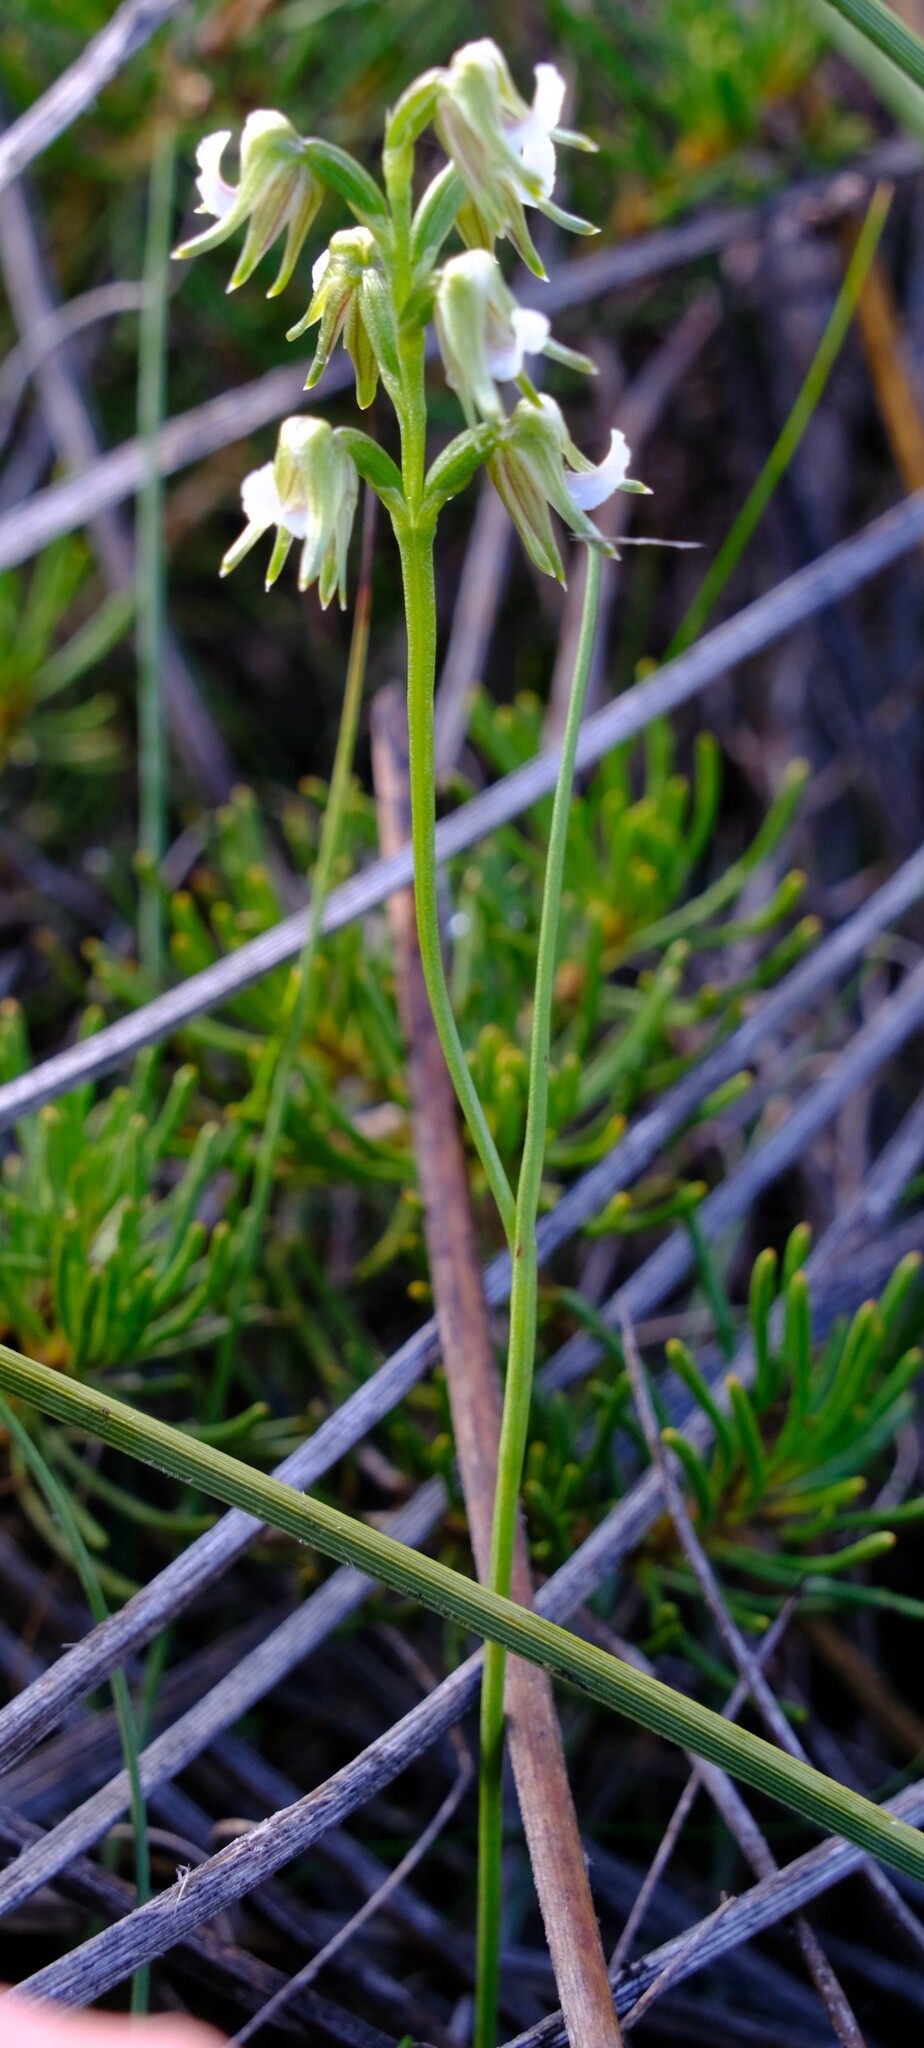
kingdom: Plantae
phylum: Tracheophyta
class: Liliopsida
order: Asparagales
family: Orchidaceae
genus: Prasophyllum
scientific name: Prasophyllum parvifolium
